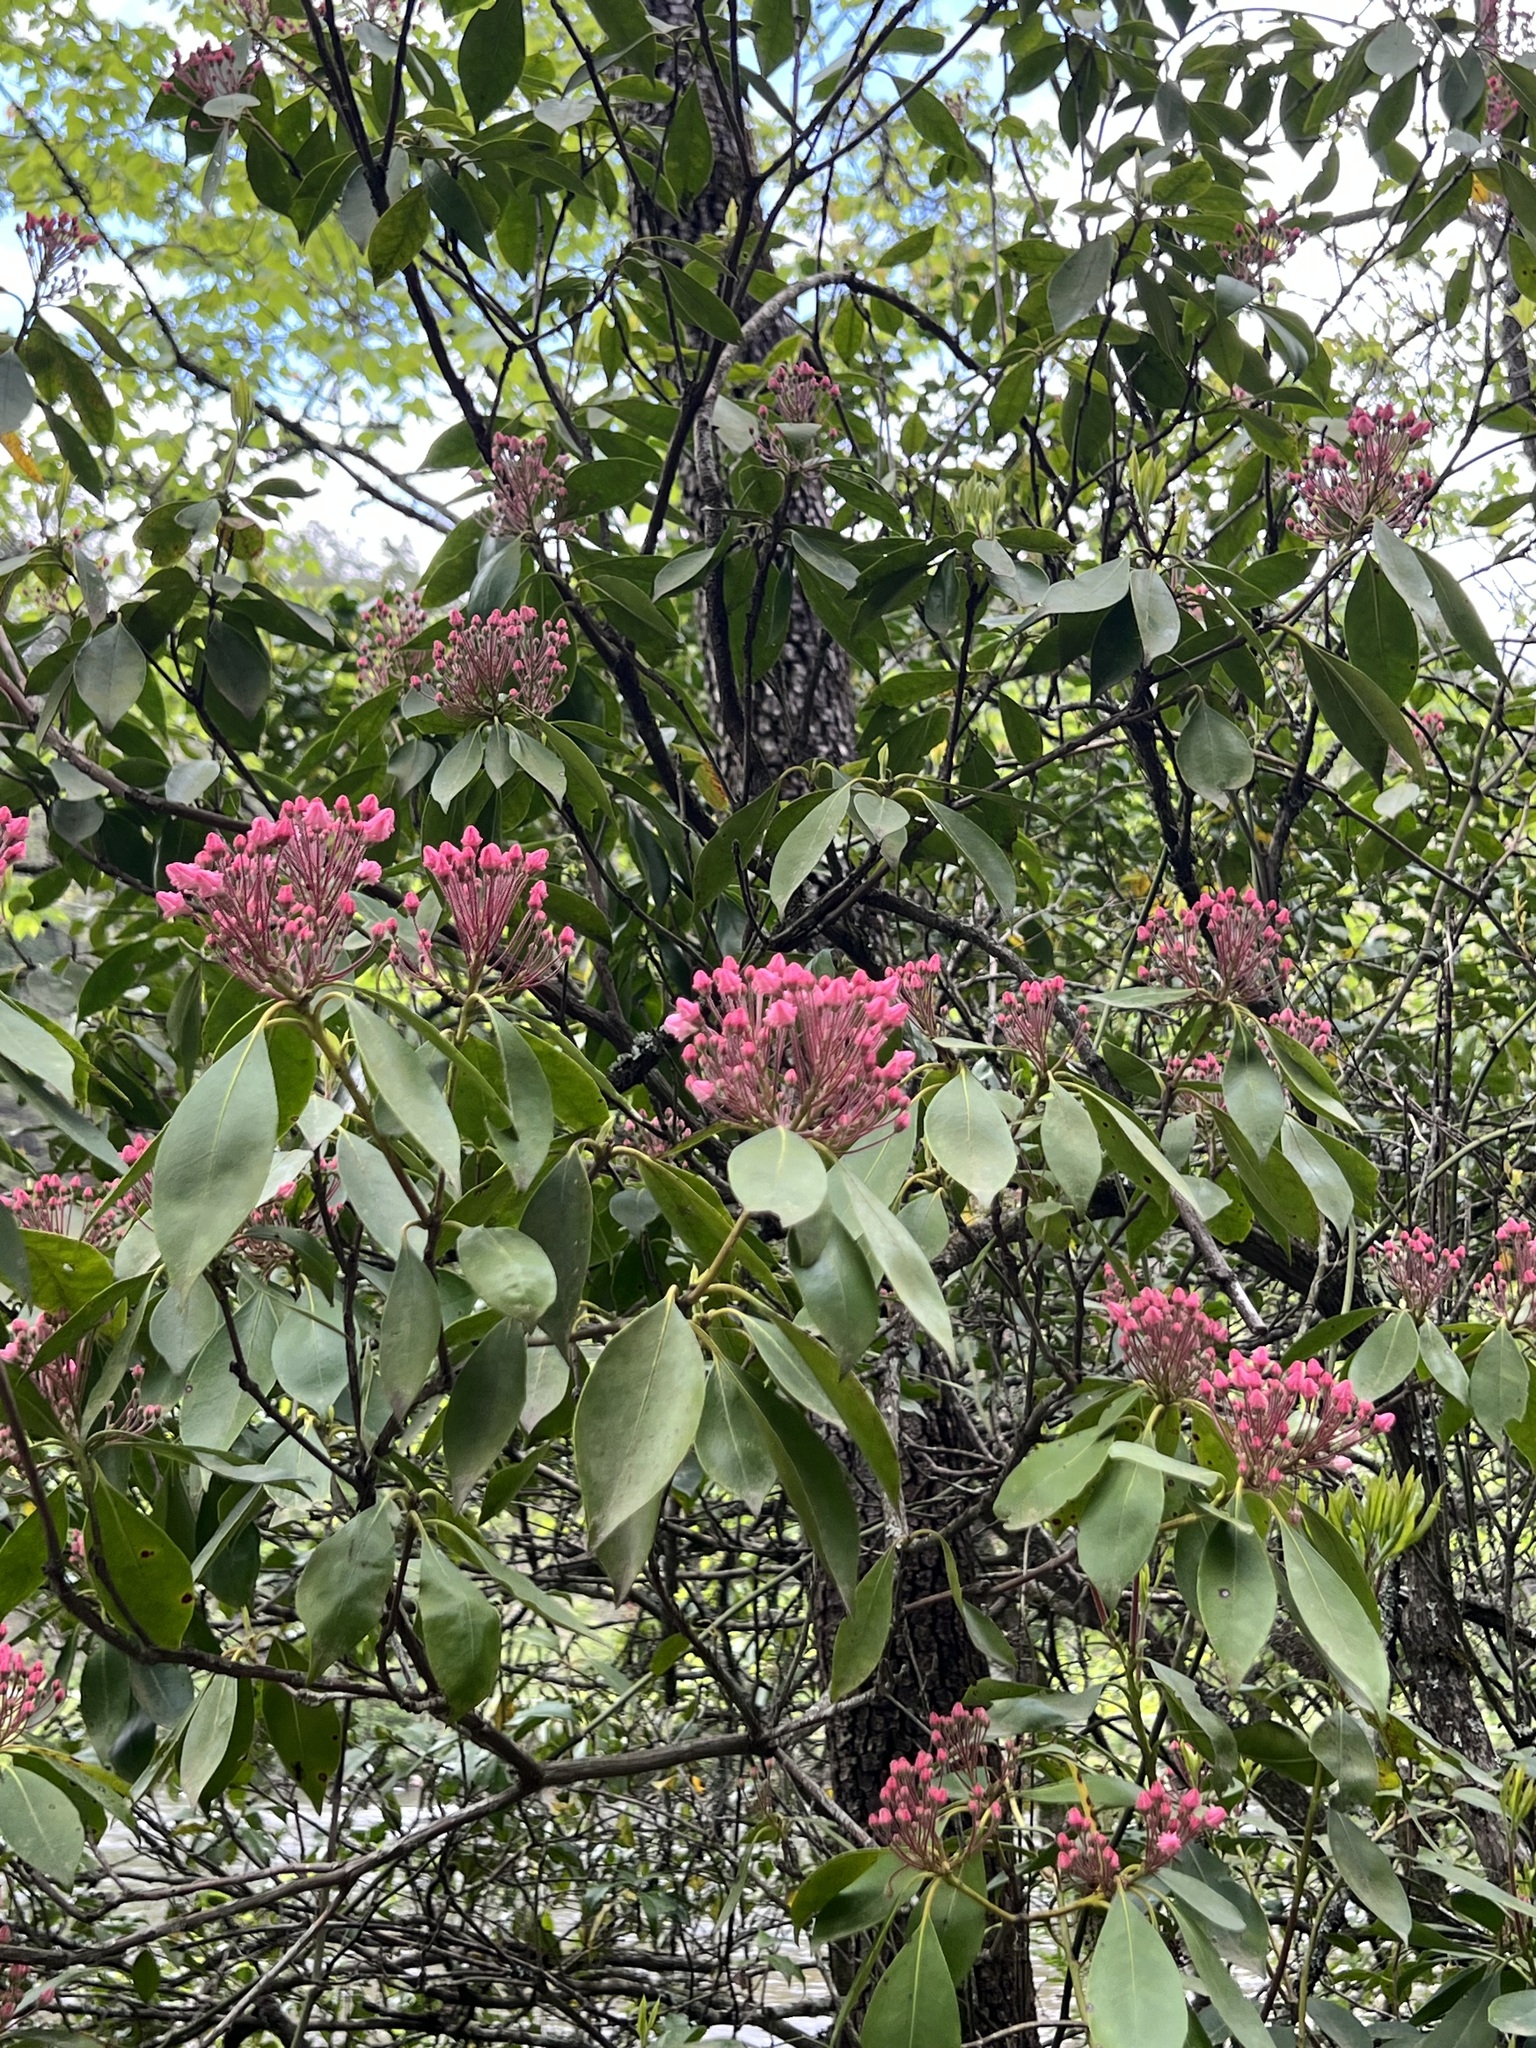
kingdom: Plantae
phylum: Tracheophyta
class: Magnoliopsida
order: Ericales
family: Ericaceae
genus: Kalmia
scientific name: Kalmia latifolia
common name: Mountain-laurel
